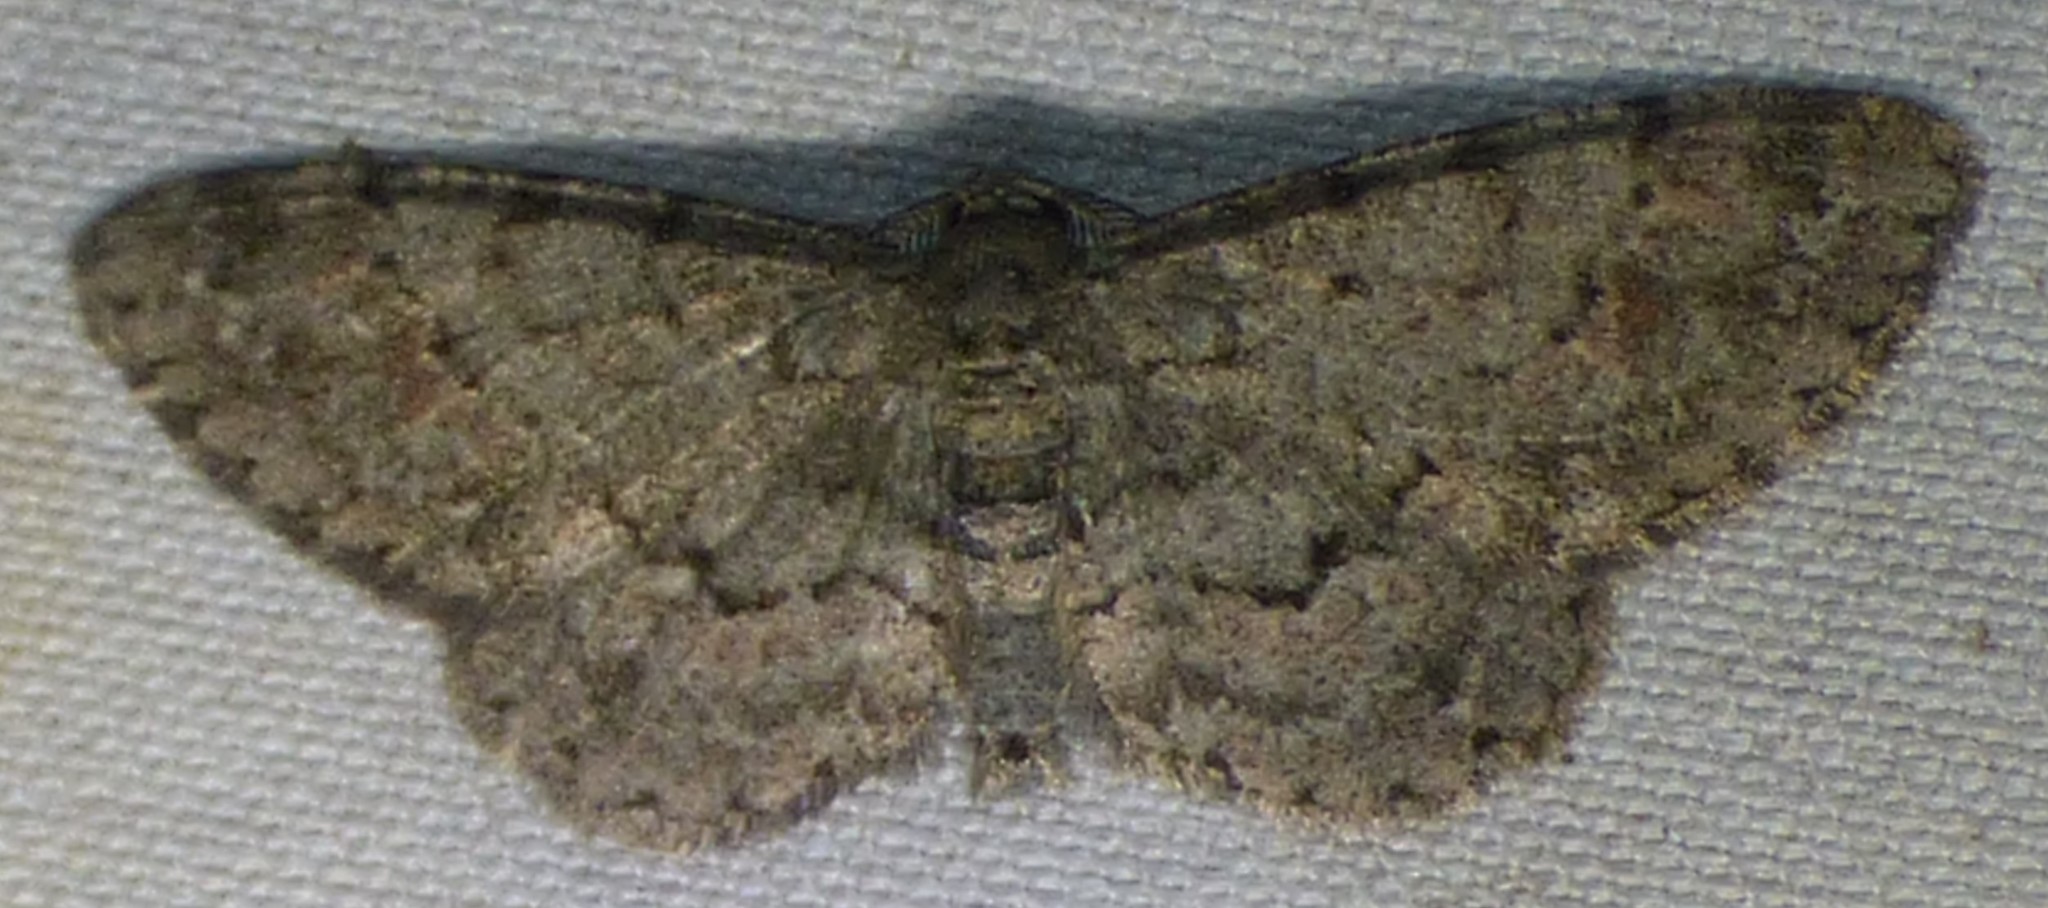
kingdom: Animalia
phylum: Arthropoda
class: Insecta
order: Lepidoptera
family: Geometridae
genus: Glenoides
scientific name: Glenoides texanaria
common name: Texas gray
